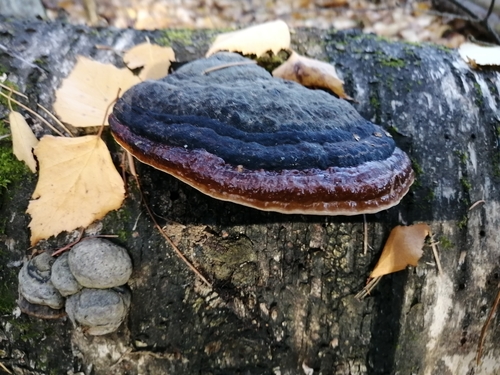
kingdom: Fungi
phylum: Basidiomycota
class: Agaricomycetes
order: Polyporales
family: Fomitopsidaceae
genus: Fomitopsis
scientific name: Fomitopsis pinicola
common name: Red-belted bracket
